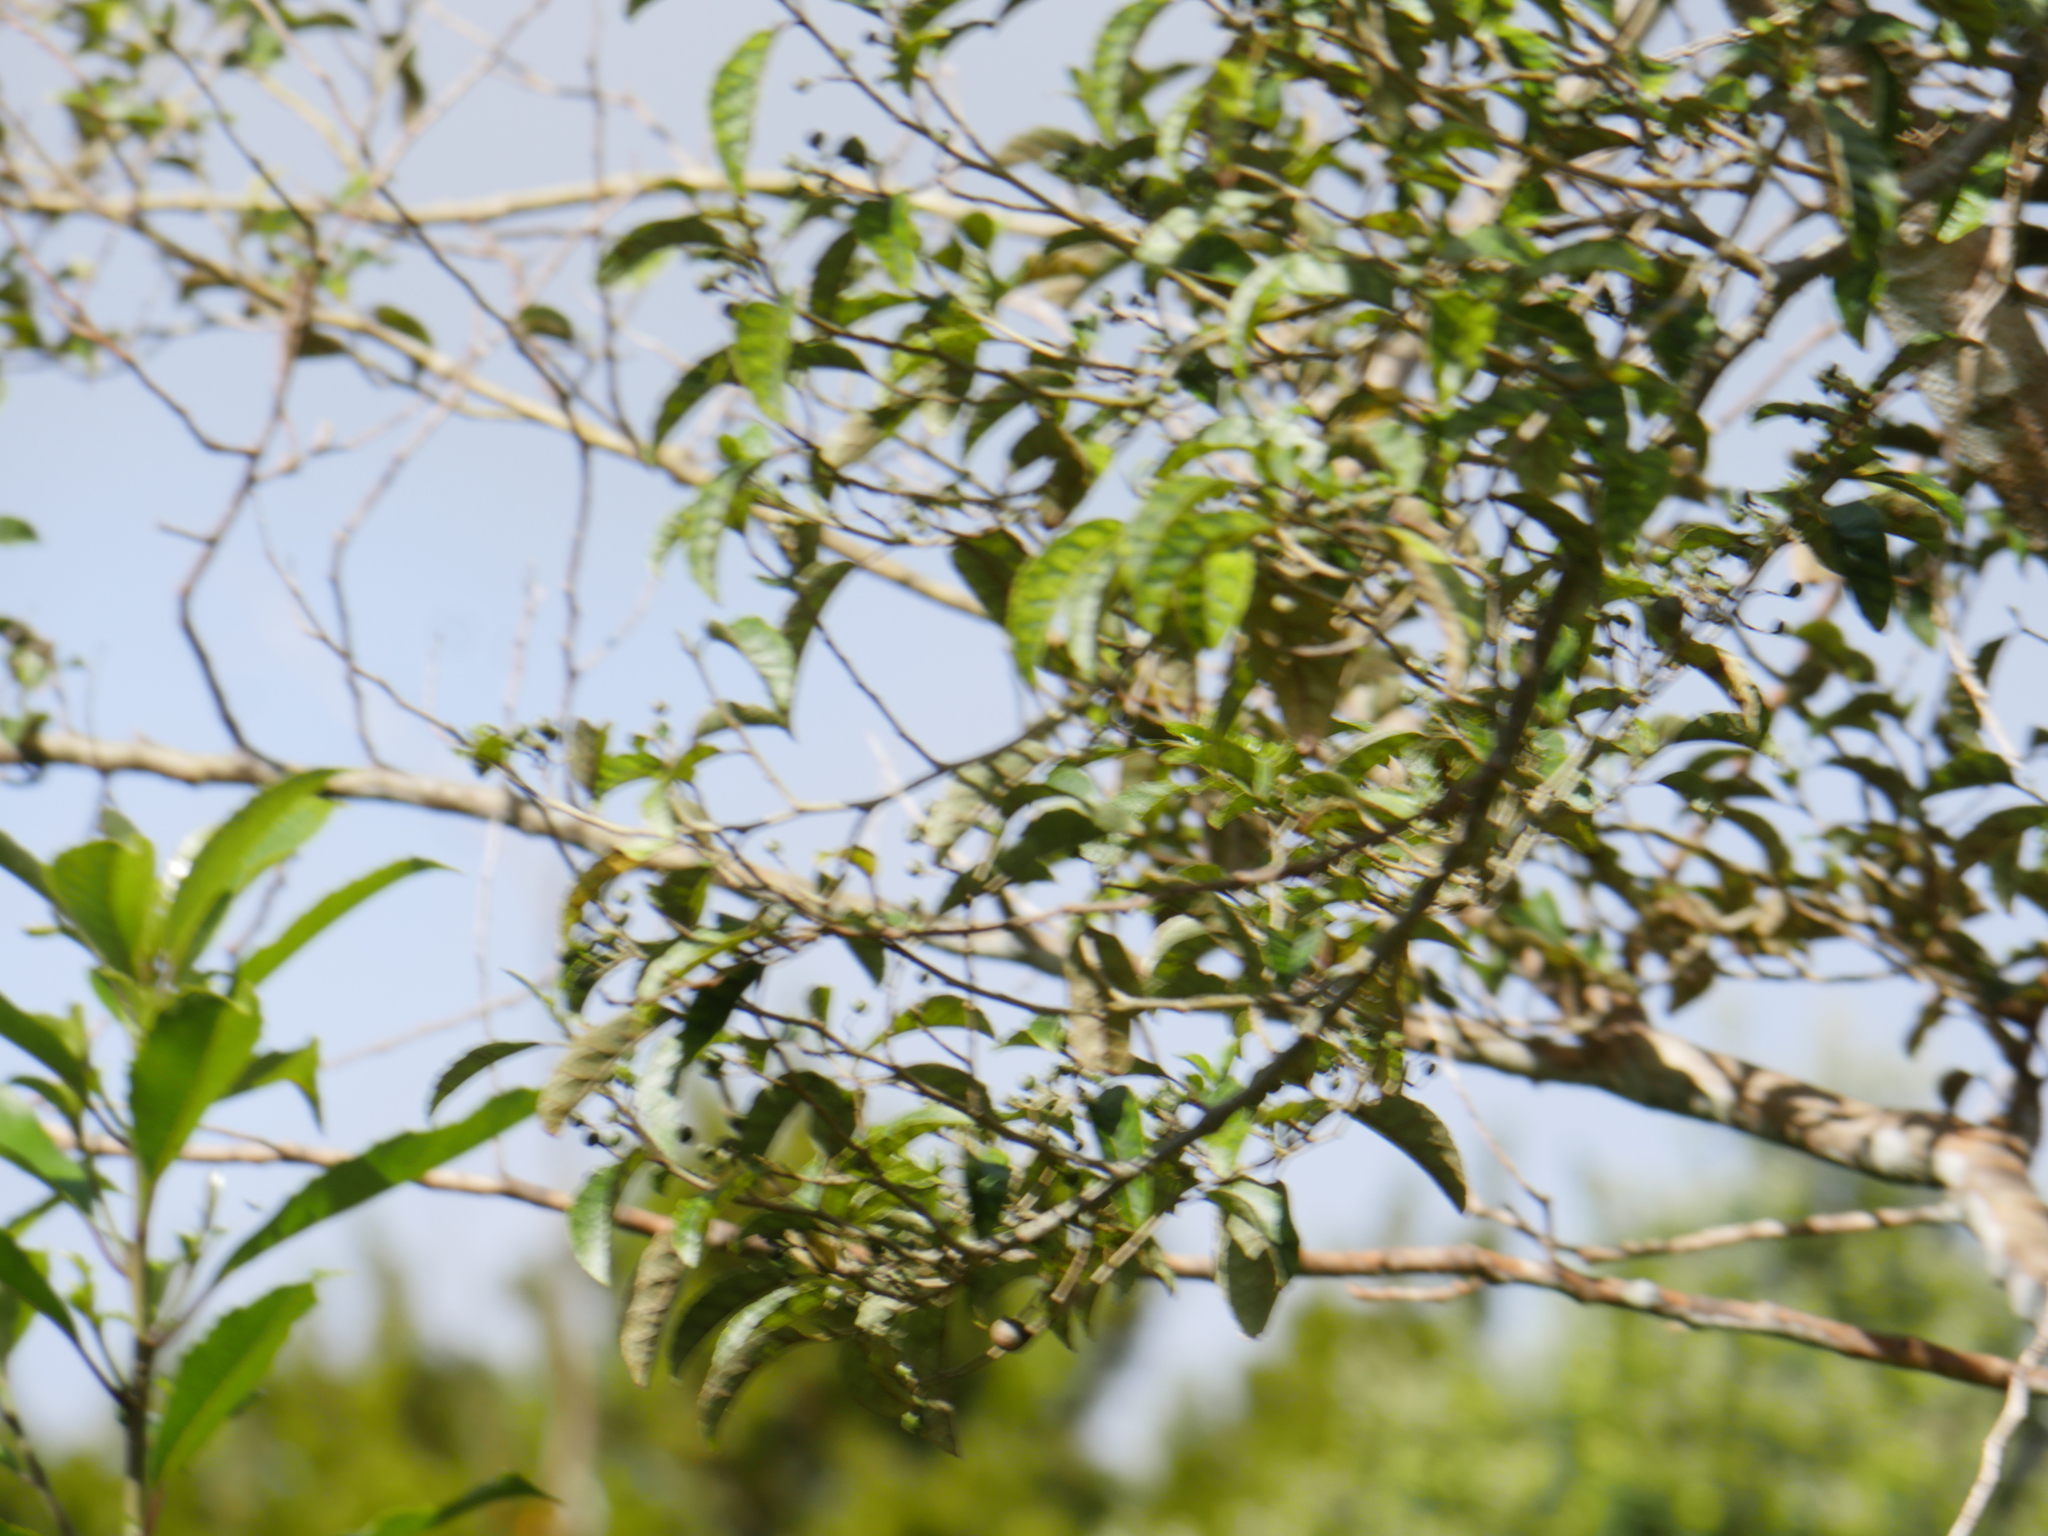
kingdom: Plantae
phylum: Tracheophyta
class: Magnoliopsida
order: Asterales
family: Rousseaceae
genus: Carpodetus
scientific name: Carpodetus serratus
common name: White mapau
